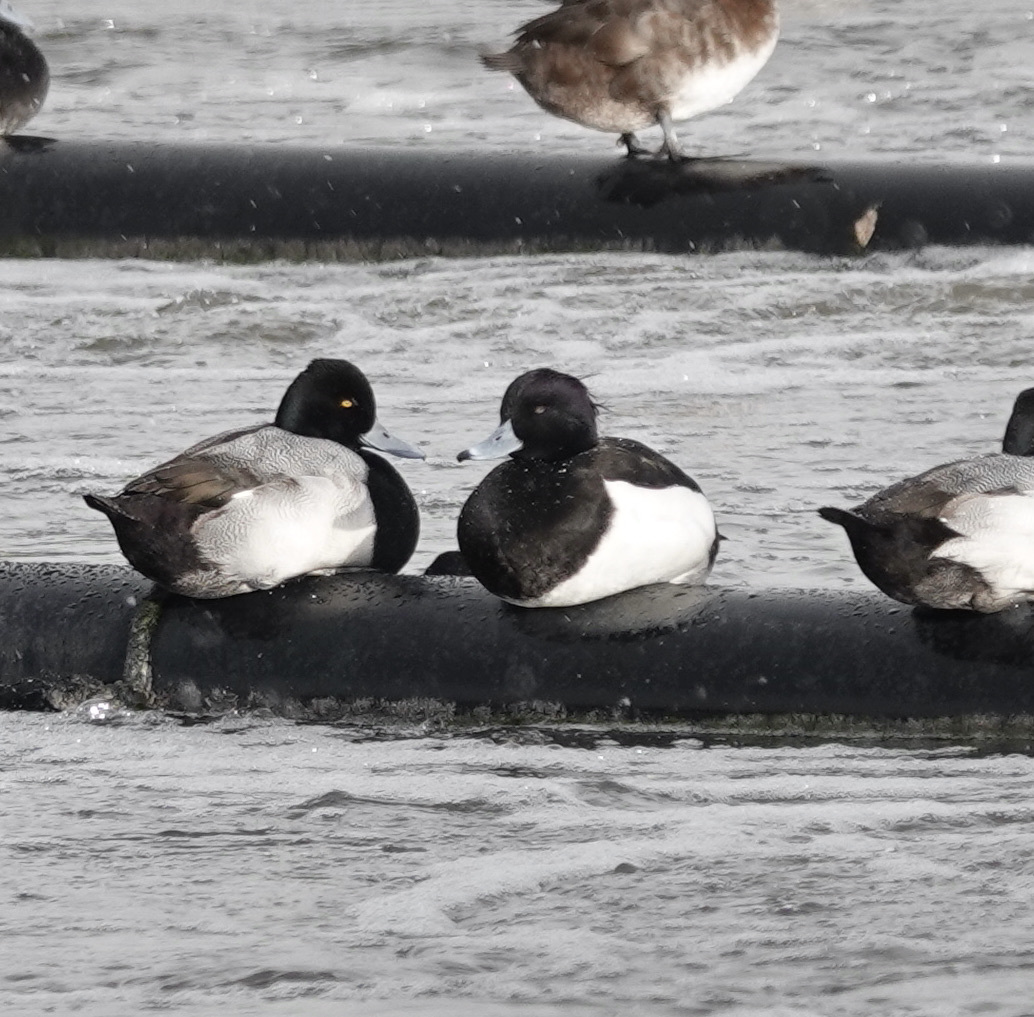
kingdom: Animalia
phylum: Chordata
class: Aves
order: Anseriformes
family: Anatidae
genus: Aythya
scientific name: Aythya fuligula
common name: Tufted duck
